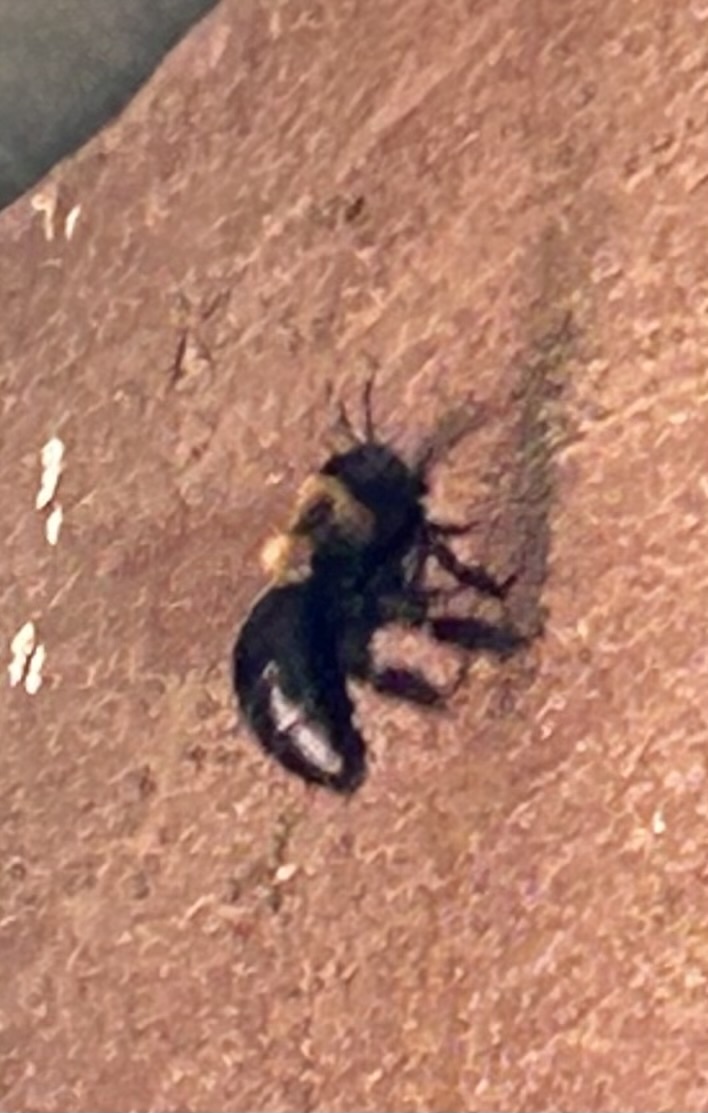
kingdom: Animalia
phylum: Arthropoda
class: Insecta
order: Hymenoptera
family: Apidae
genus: Xylocopa
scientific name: Xylocopa virginica
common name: Carpenter bee
